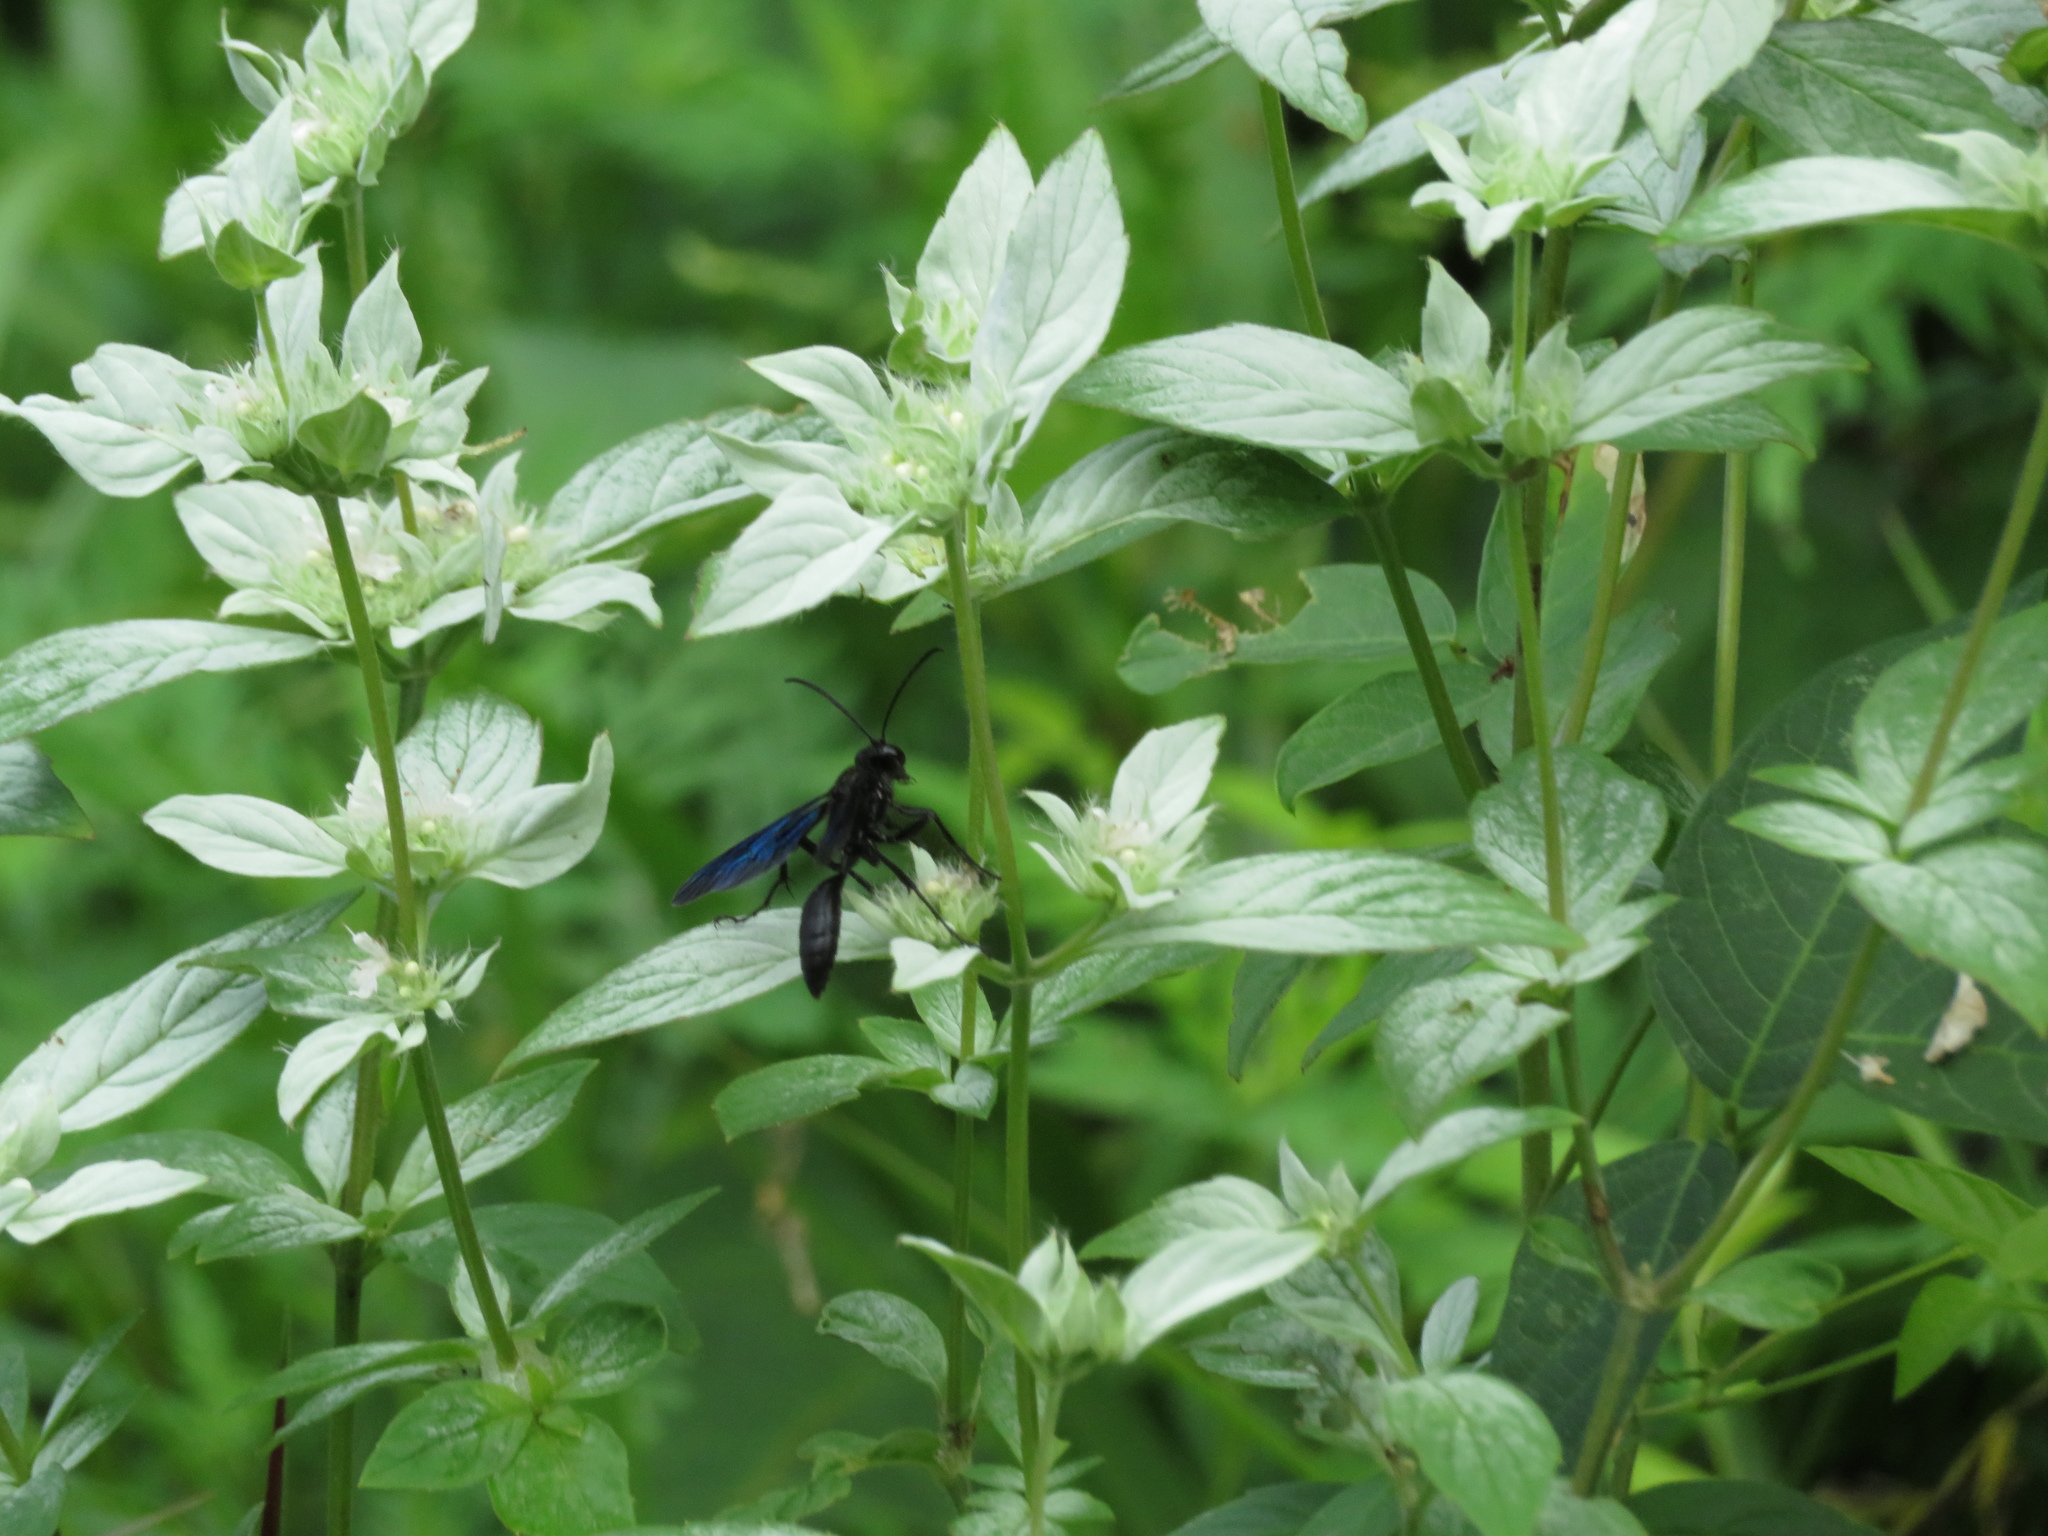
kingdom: Animalia
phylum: Arthropoda
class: Insecta
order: Hymenoptera
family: Sphecidae
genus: Sphex
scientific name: Sphex pensylvanicus
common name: Great black digger wasp
